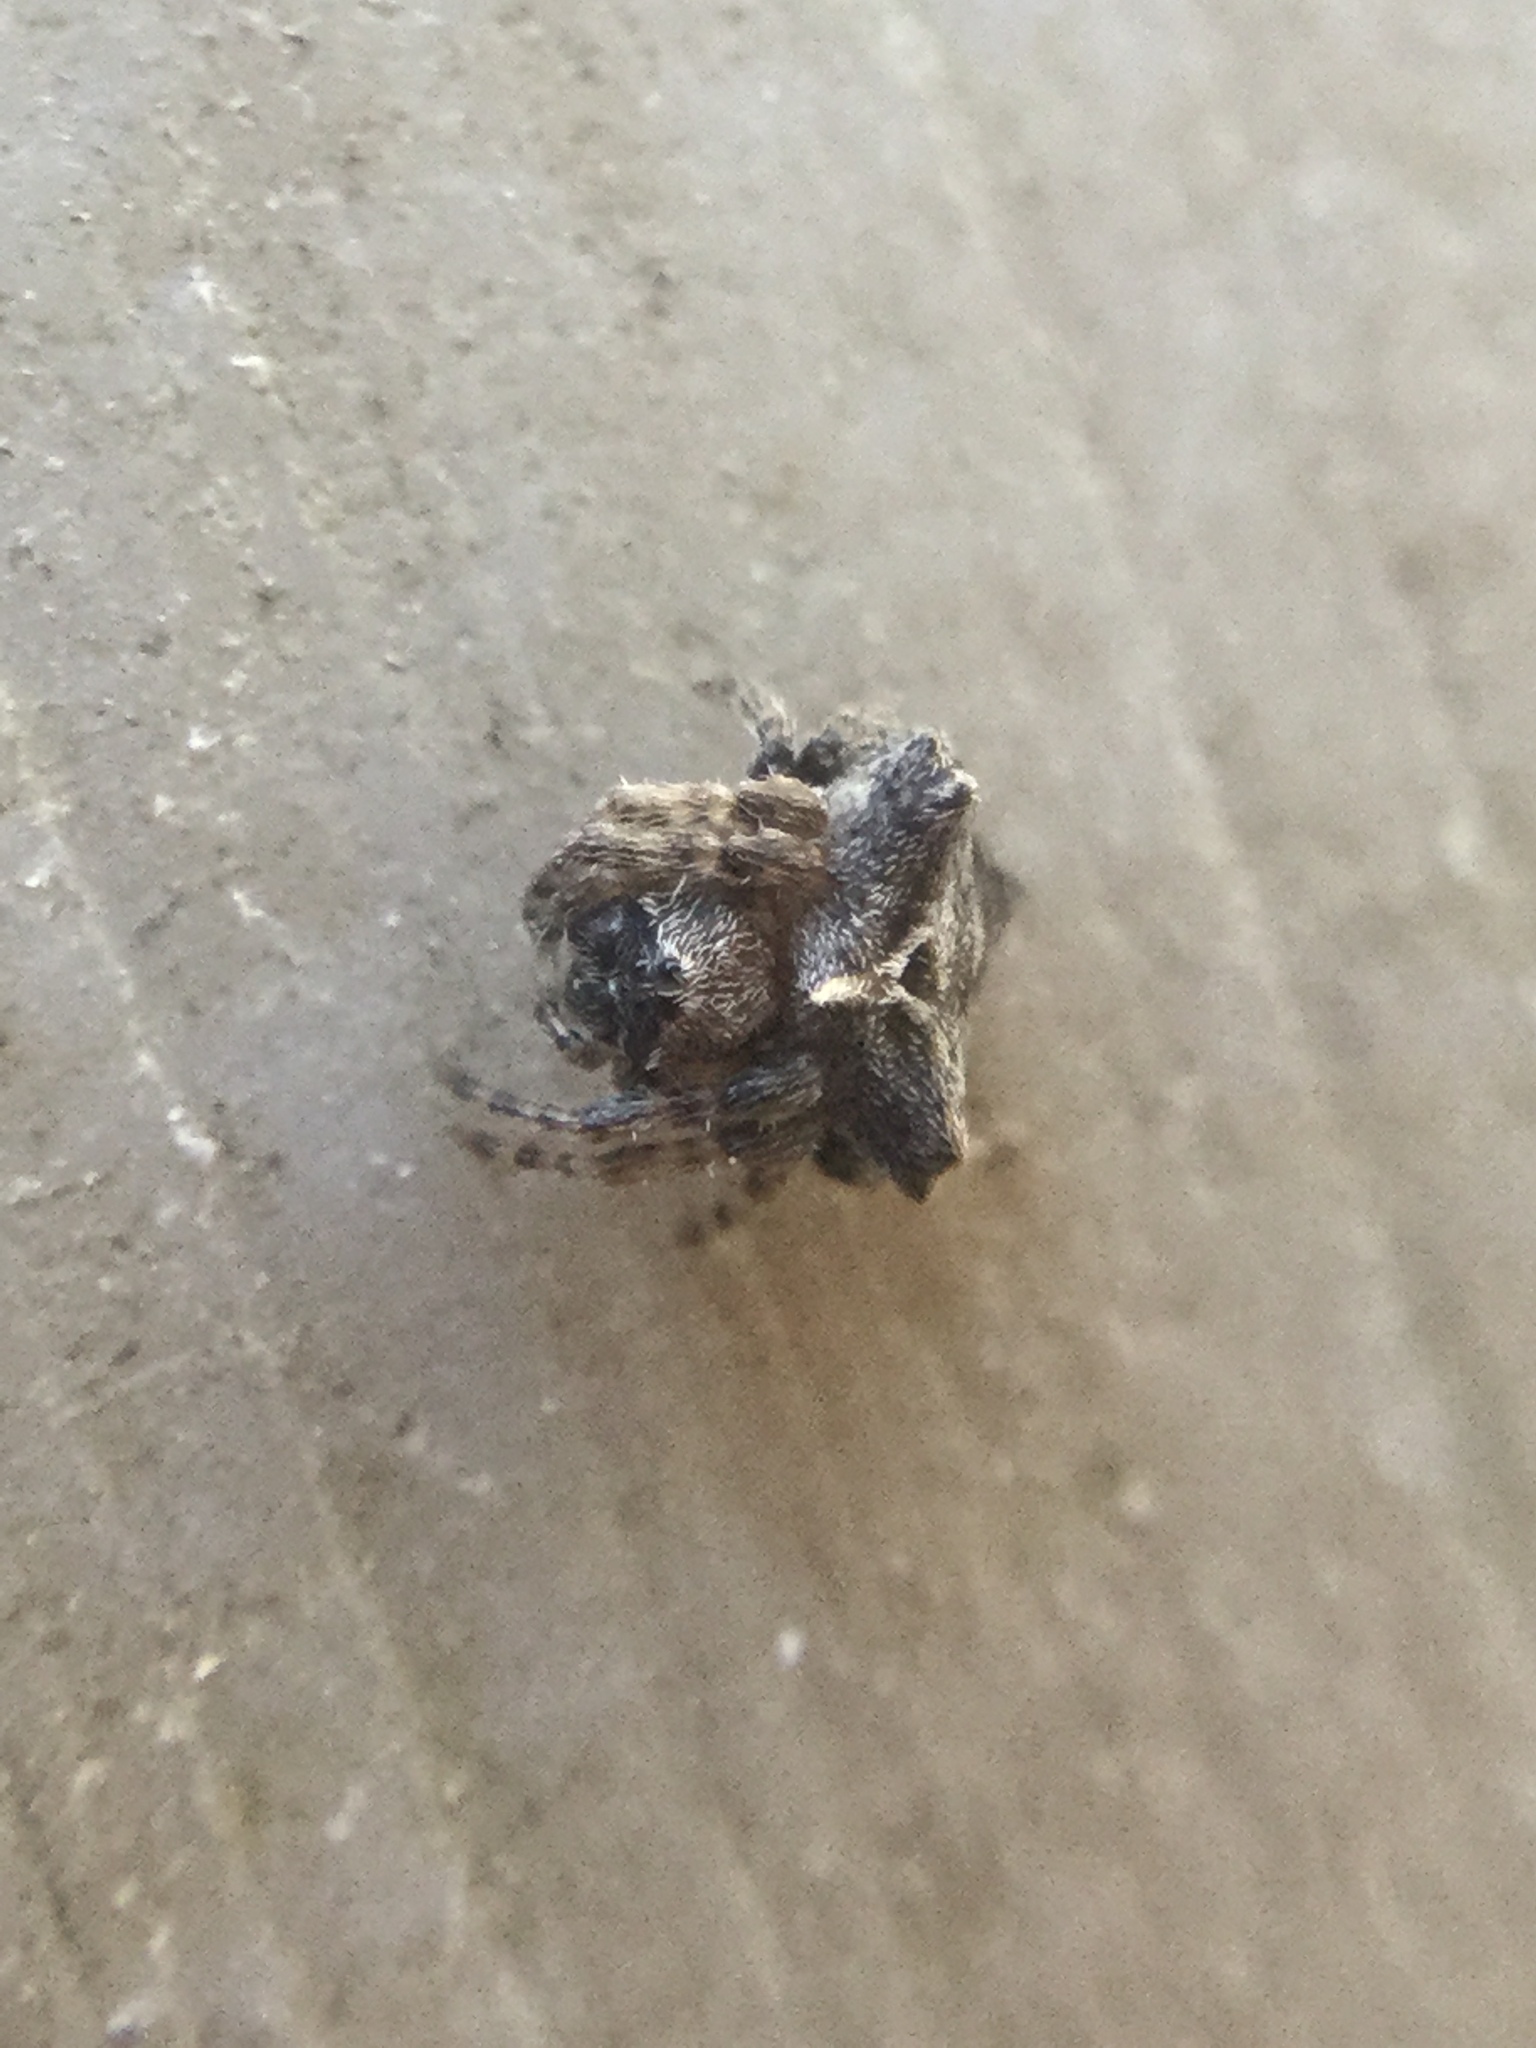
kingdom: Animalia
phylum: Arthropoda
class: Arachnida
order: Araneae
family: Araneidae
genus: Acanthepeira
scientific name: Acanthepeira stellata
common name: Starbellied orbweaver
